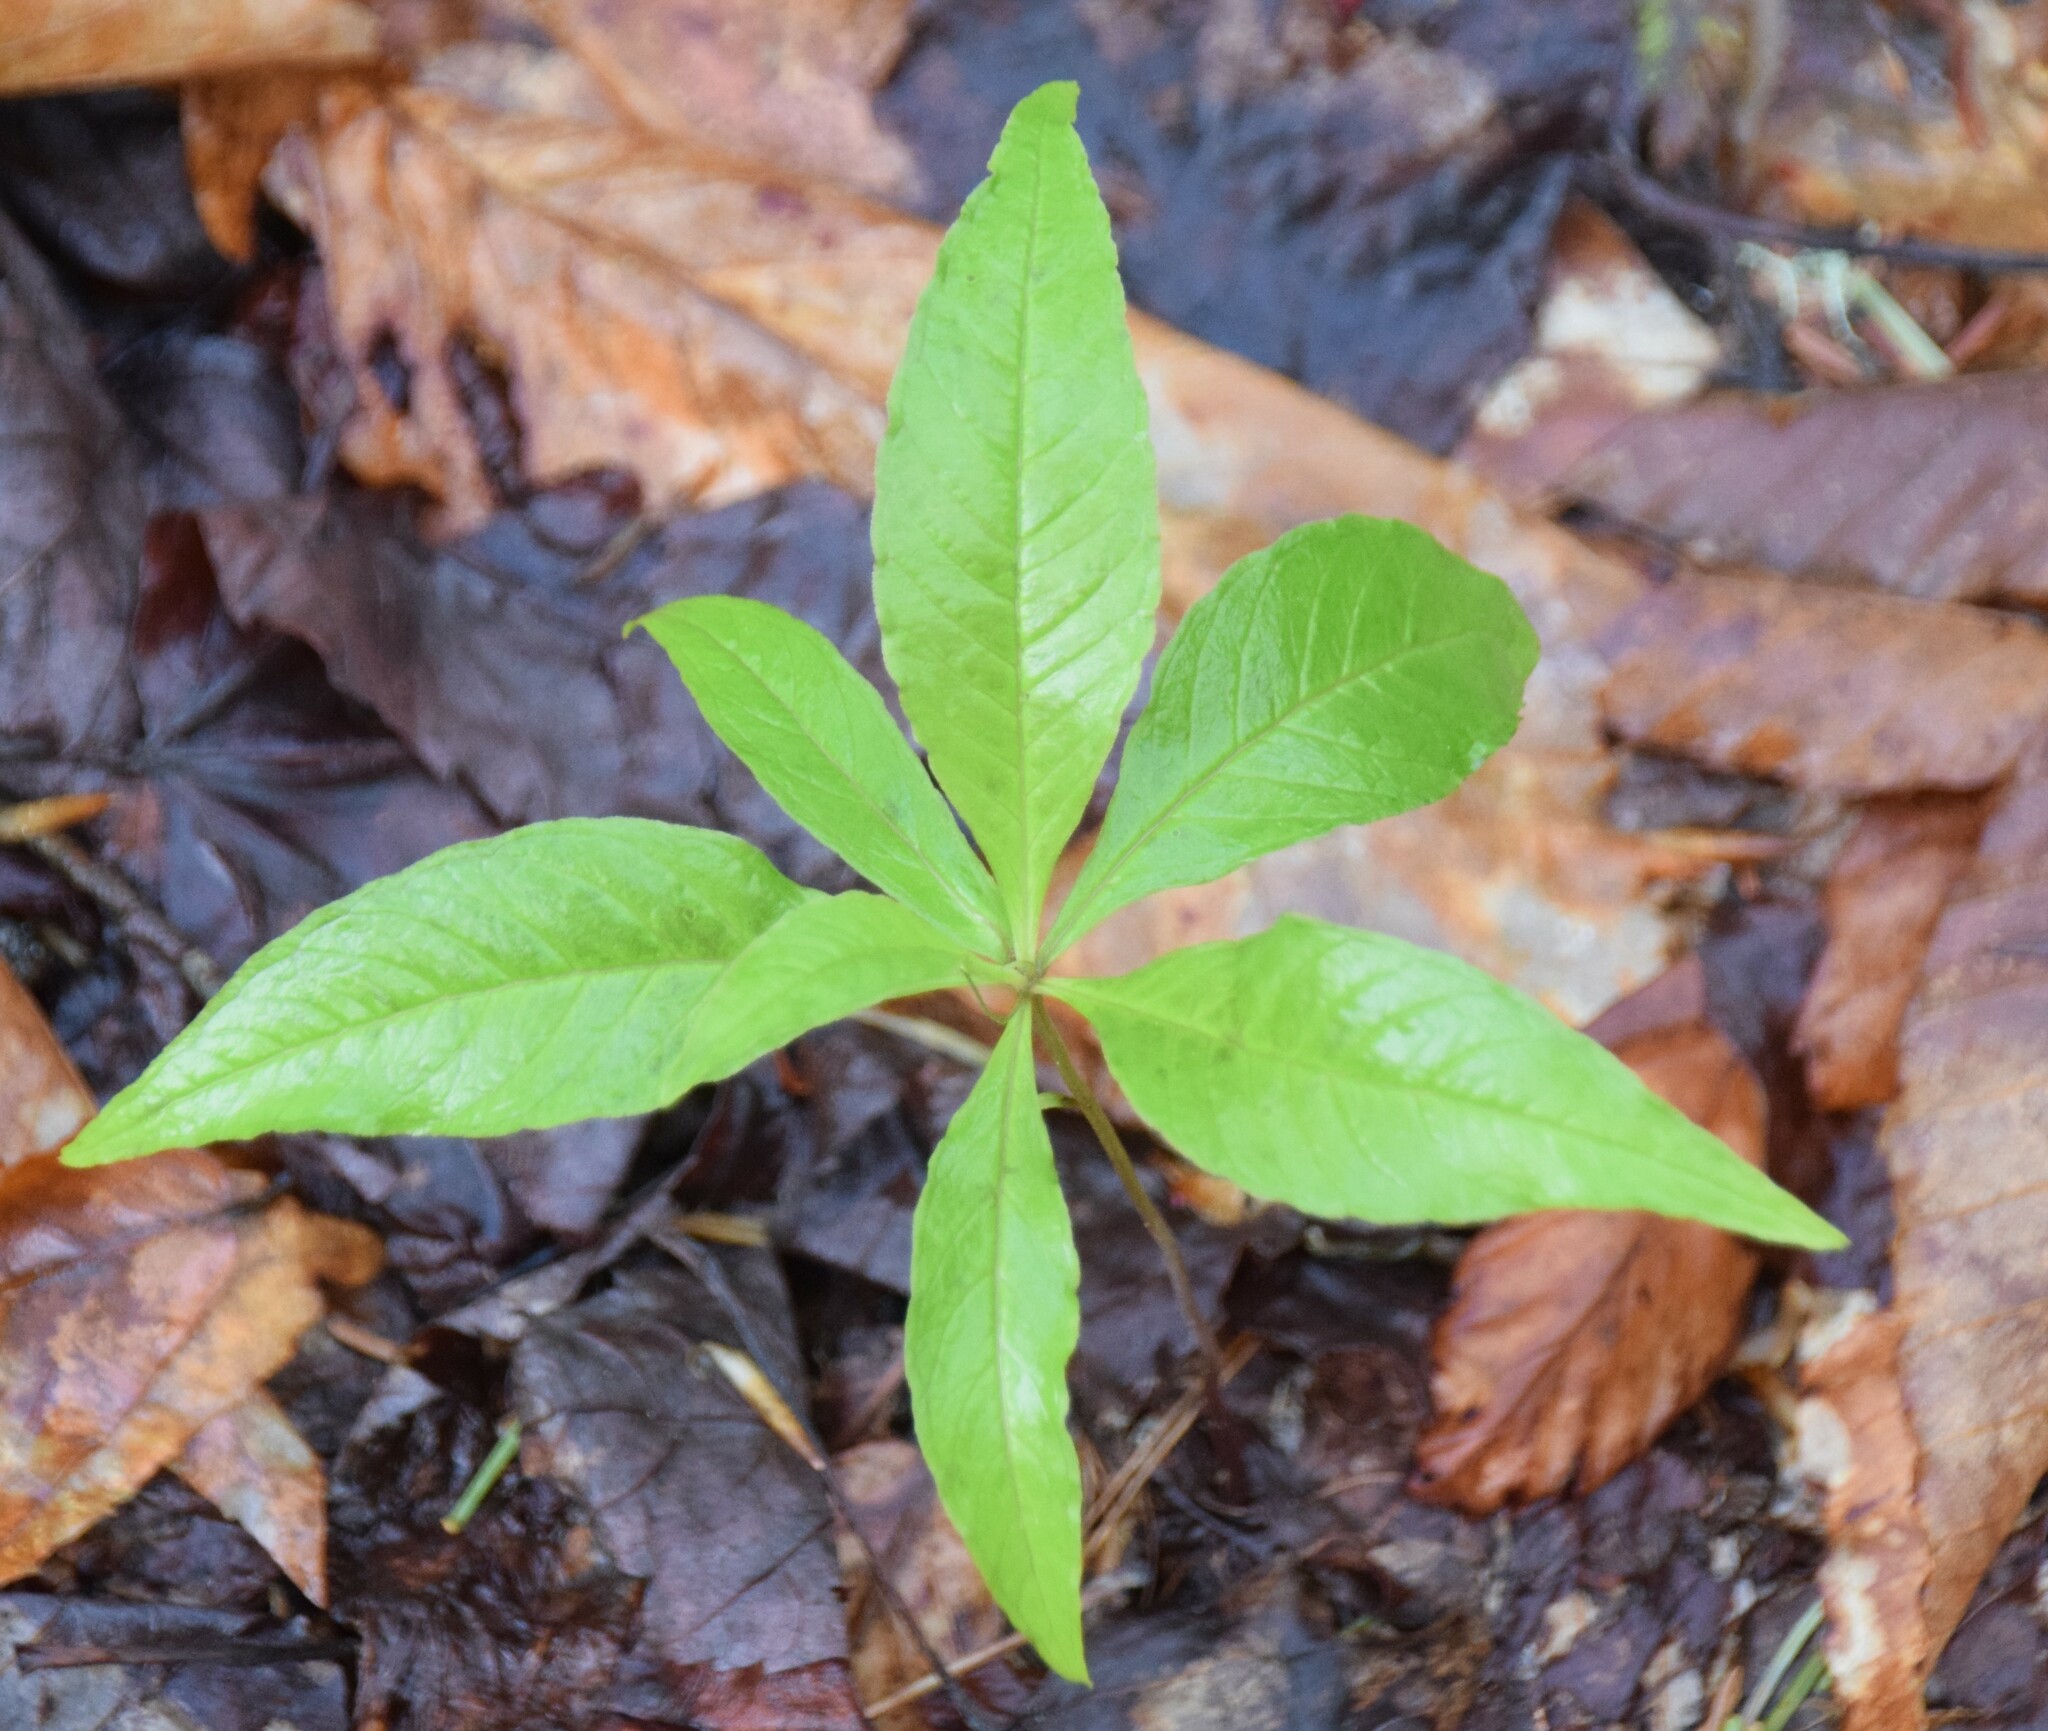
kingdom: Plantae
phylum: Tracheophyta
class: Magnoliopsida
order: Ericales
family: Primulaceae
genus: Lysimachia
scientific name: Lysimachia borealis
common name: American starflower
